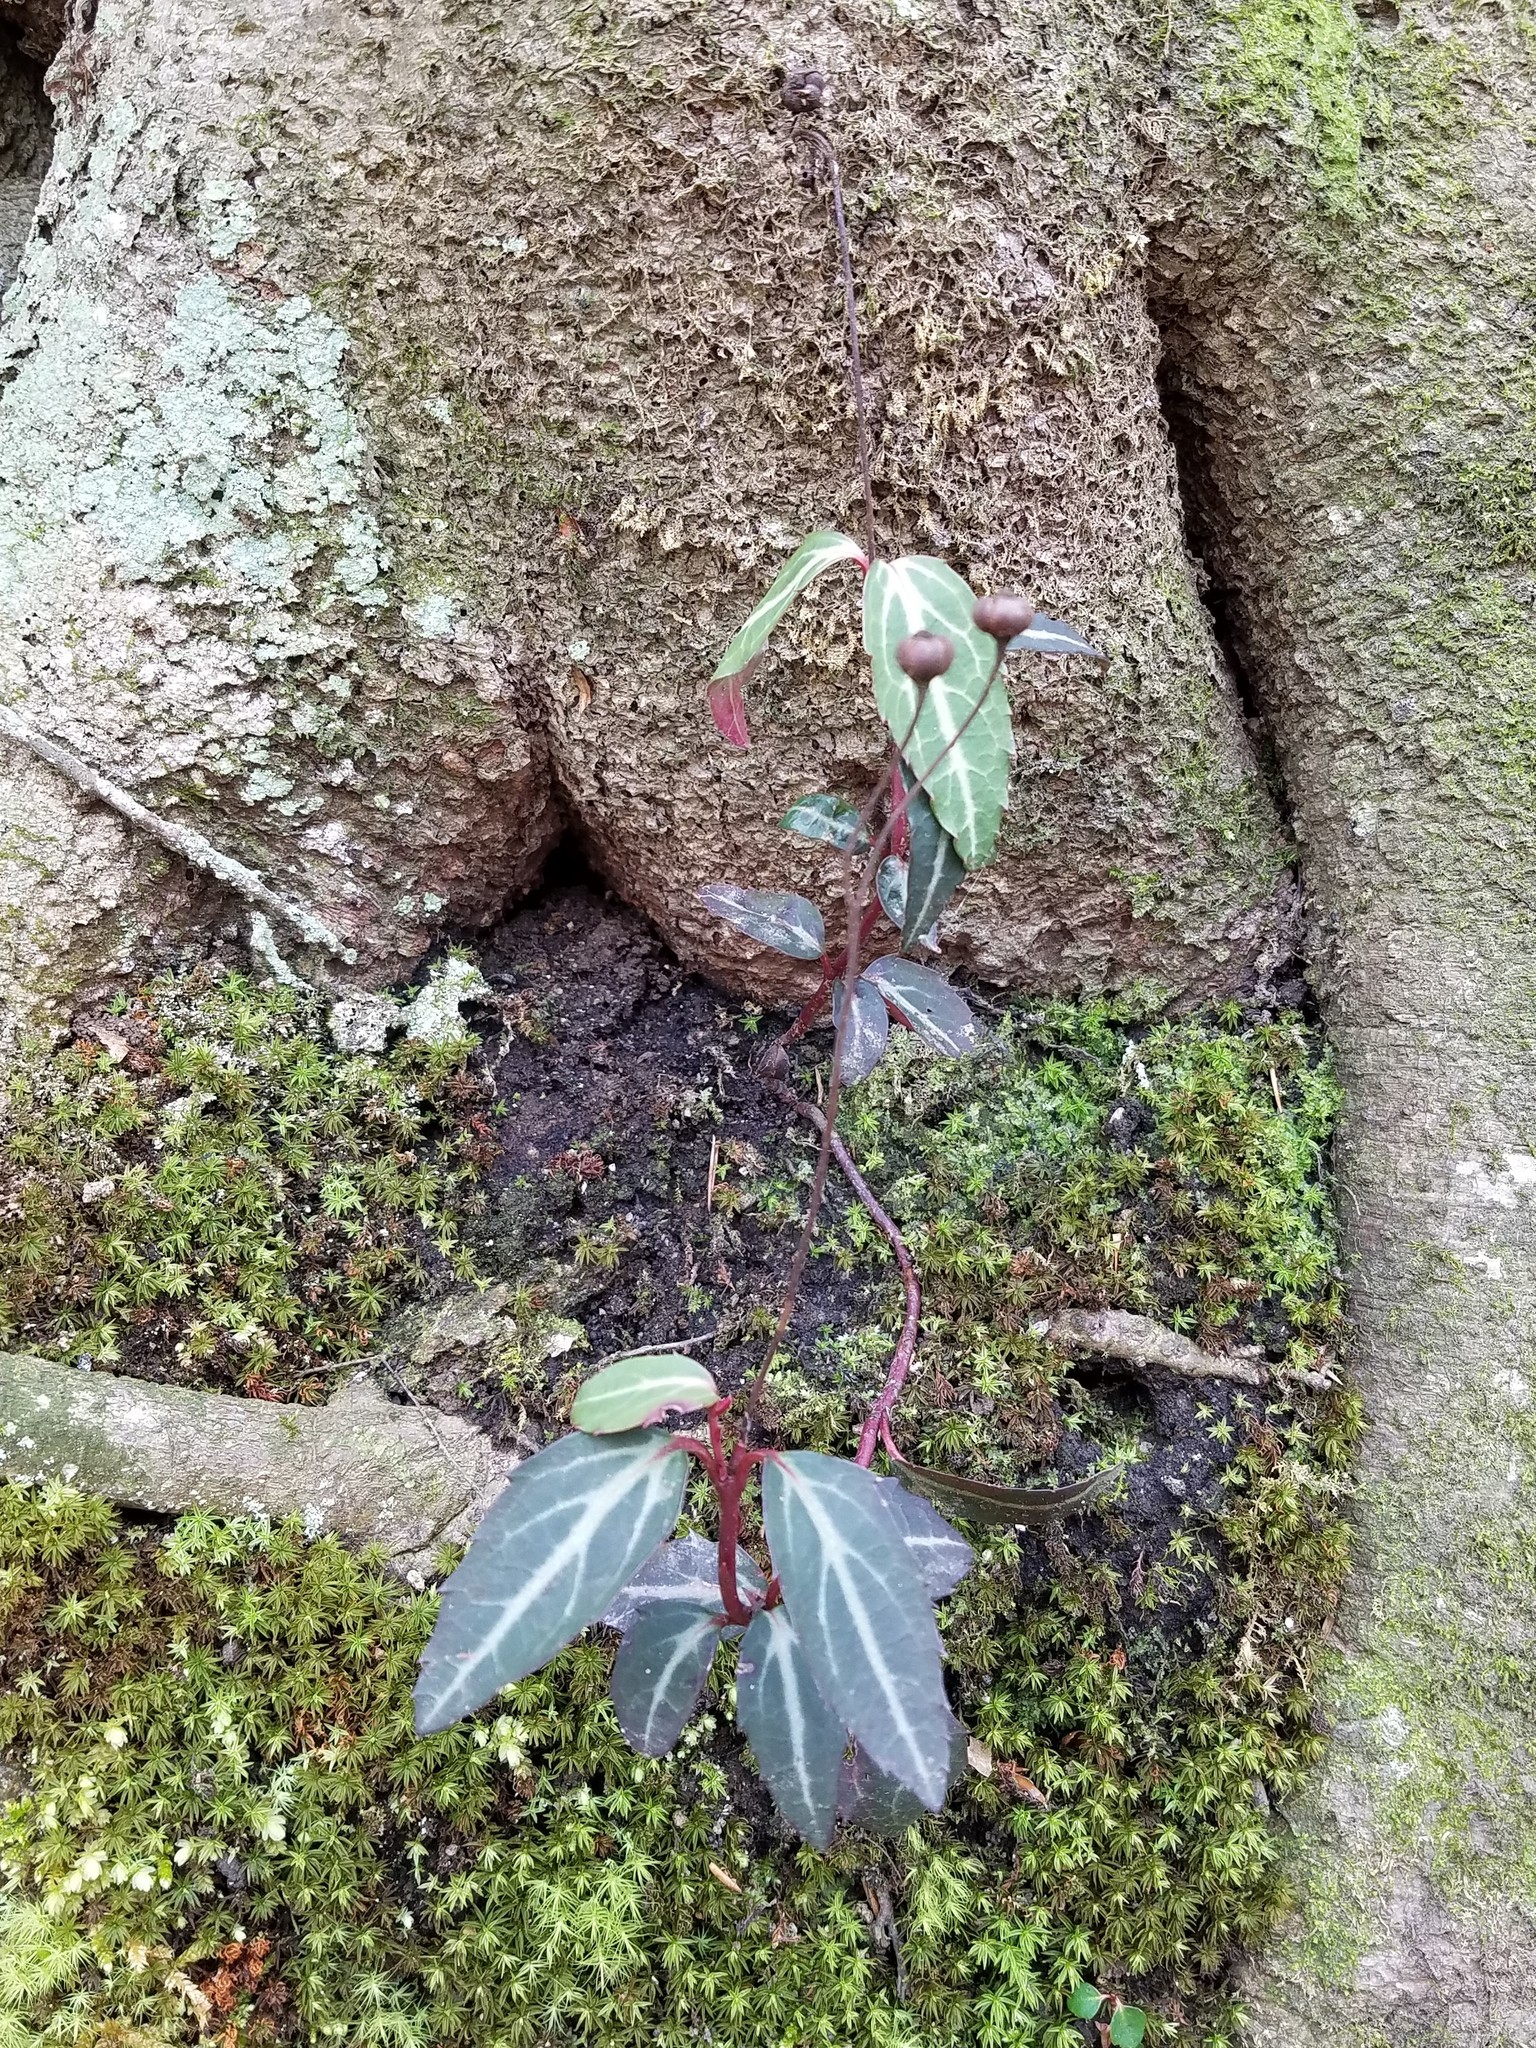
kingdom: Plantae
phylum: Tracheophyta
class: Magnoliopsida
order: Ericales
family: Ericaceae
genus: Chimaphila
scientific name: Chimaphila maculata
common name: Spotted pipsissewa
